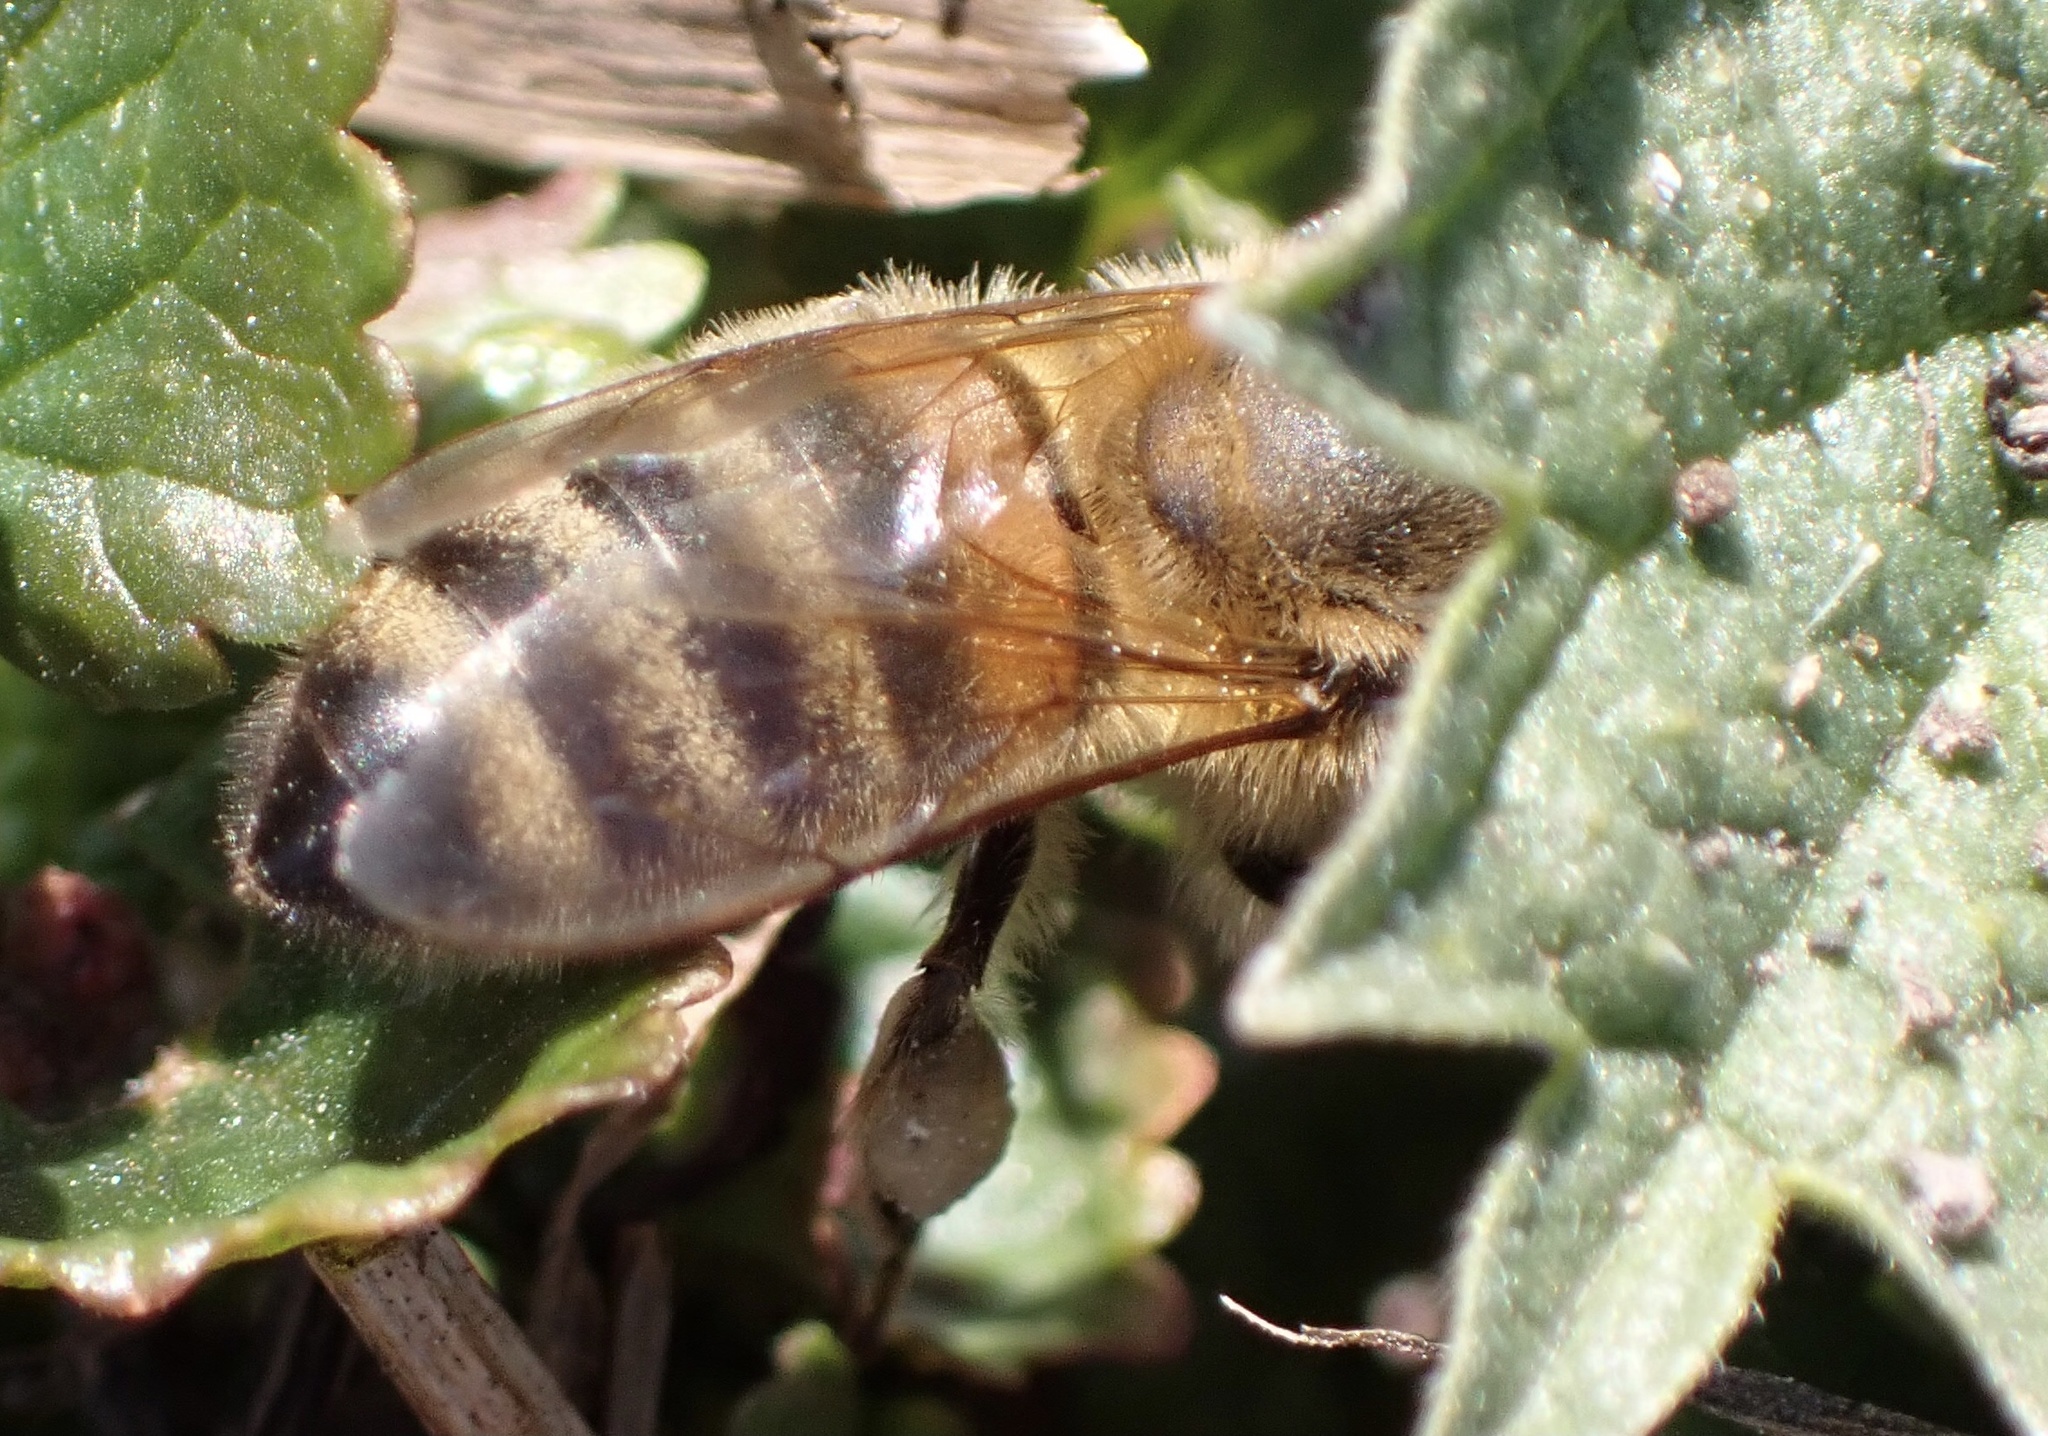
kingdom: Animalia
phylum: Arthropoda
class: Insecta
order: Hymenoptera
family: Apidae
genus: Apis
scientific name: Apis mellifera
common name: Honey bee
